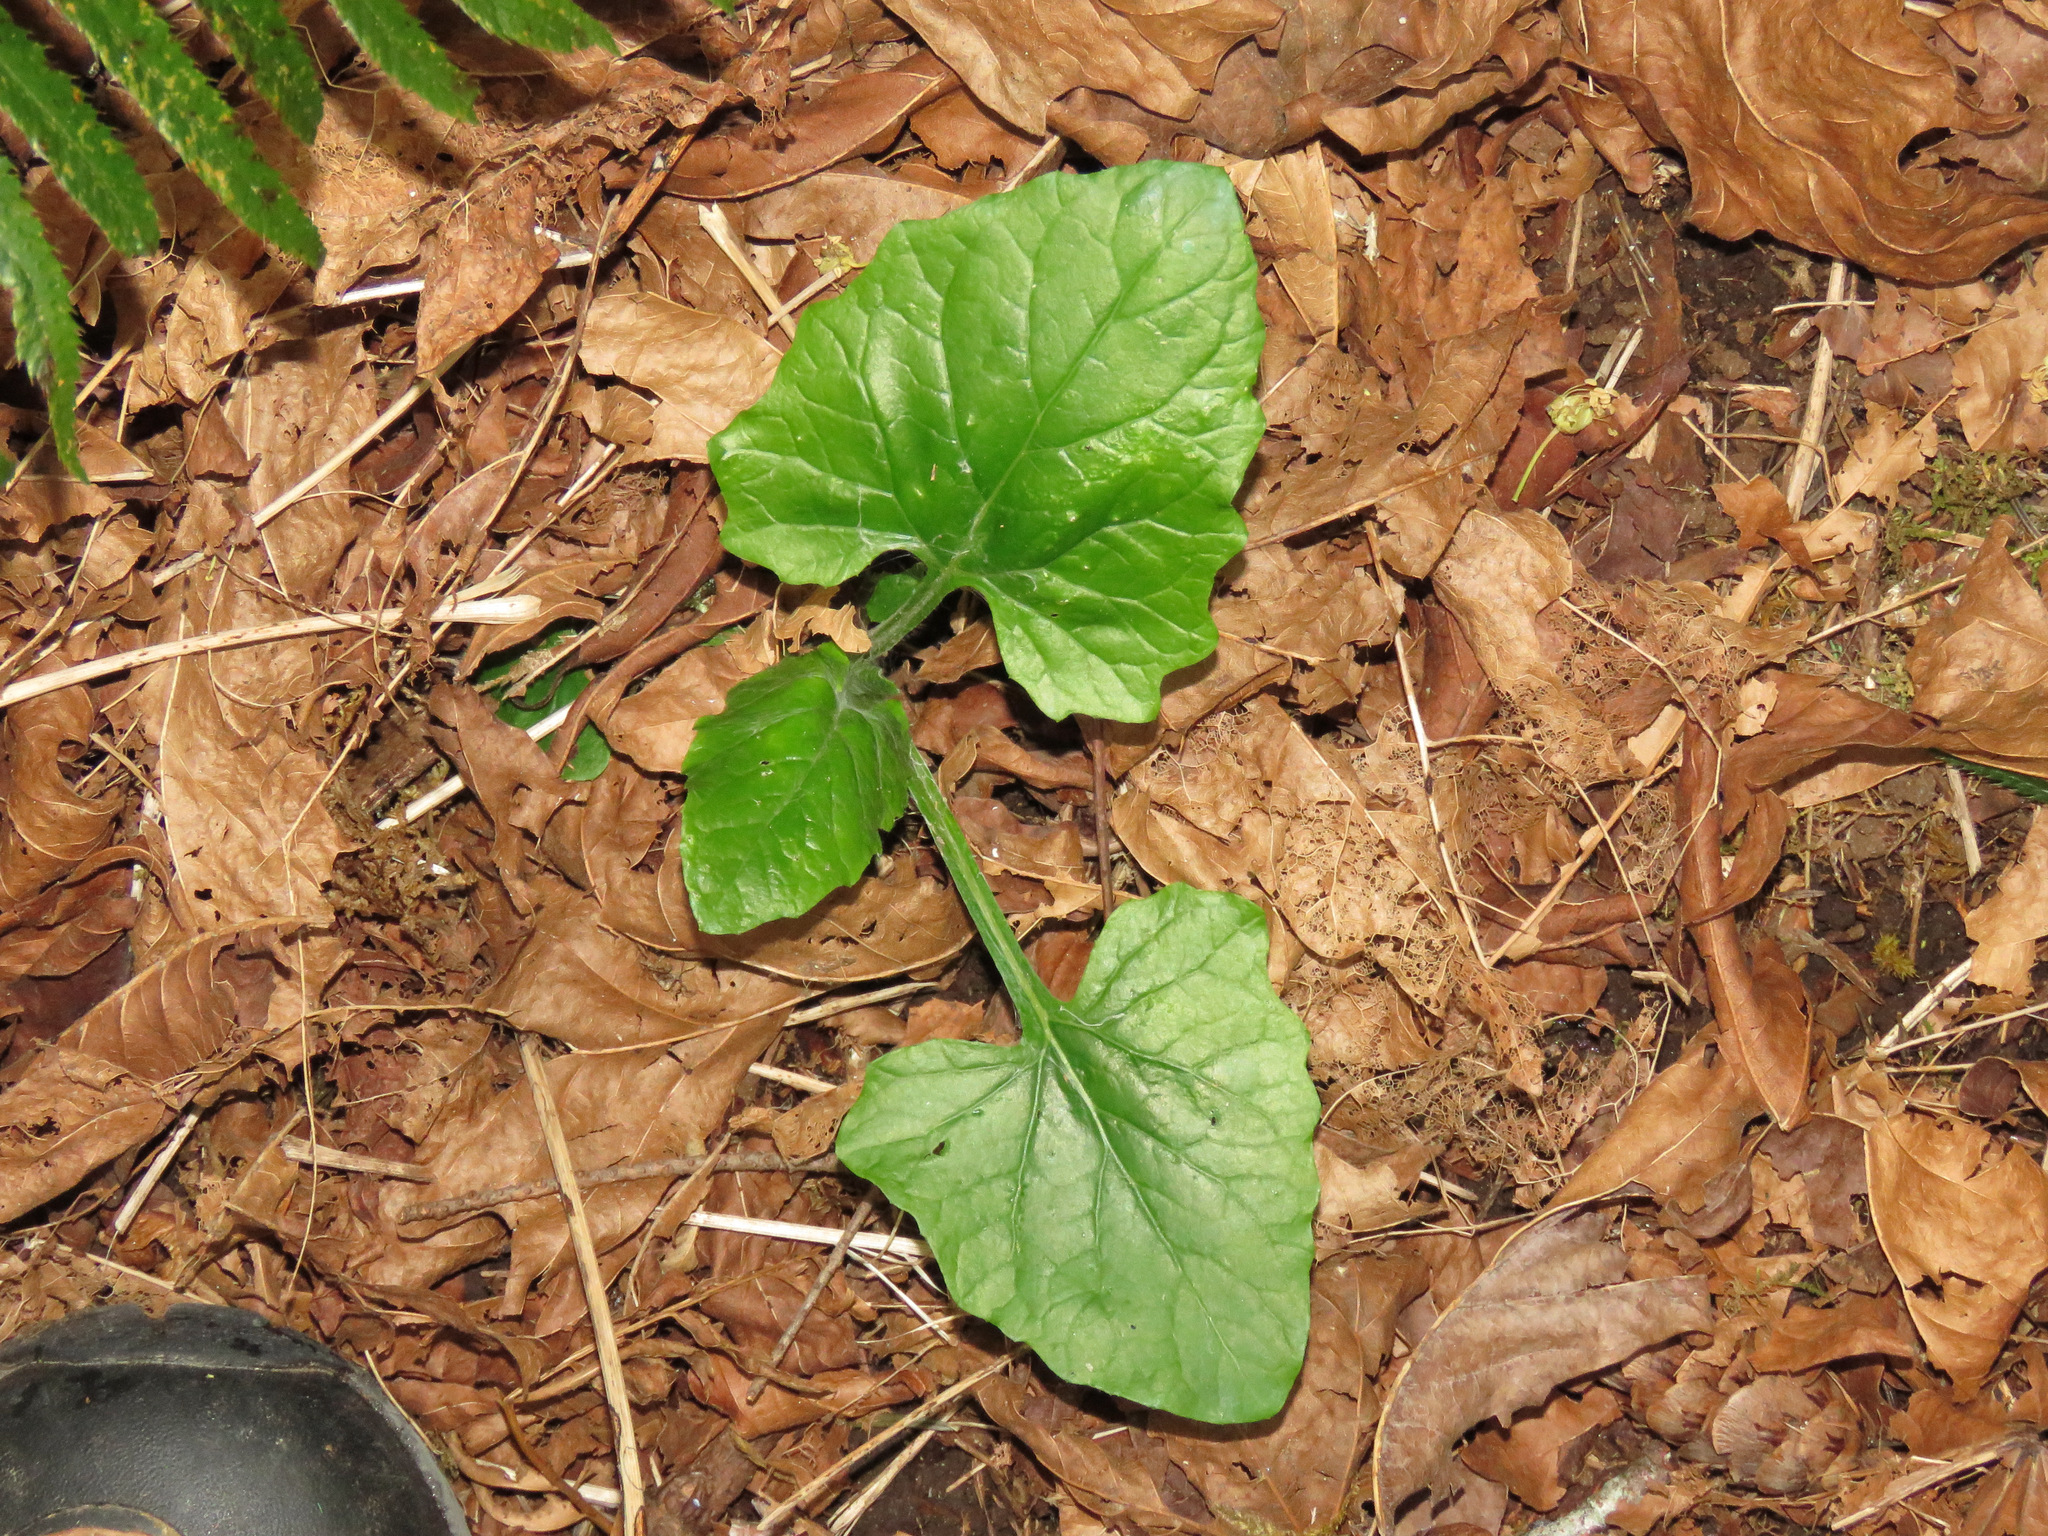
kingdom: Plantae
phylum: Tracheophyta
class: Magnoliopsida
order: Asterales
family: Asteraceae
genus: Adenocaulon
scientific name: Adenocaulon bicolor
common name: Trailplant
